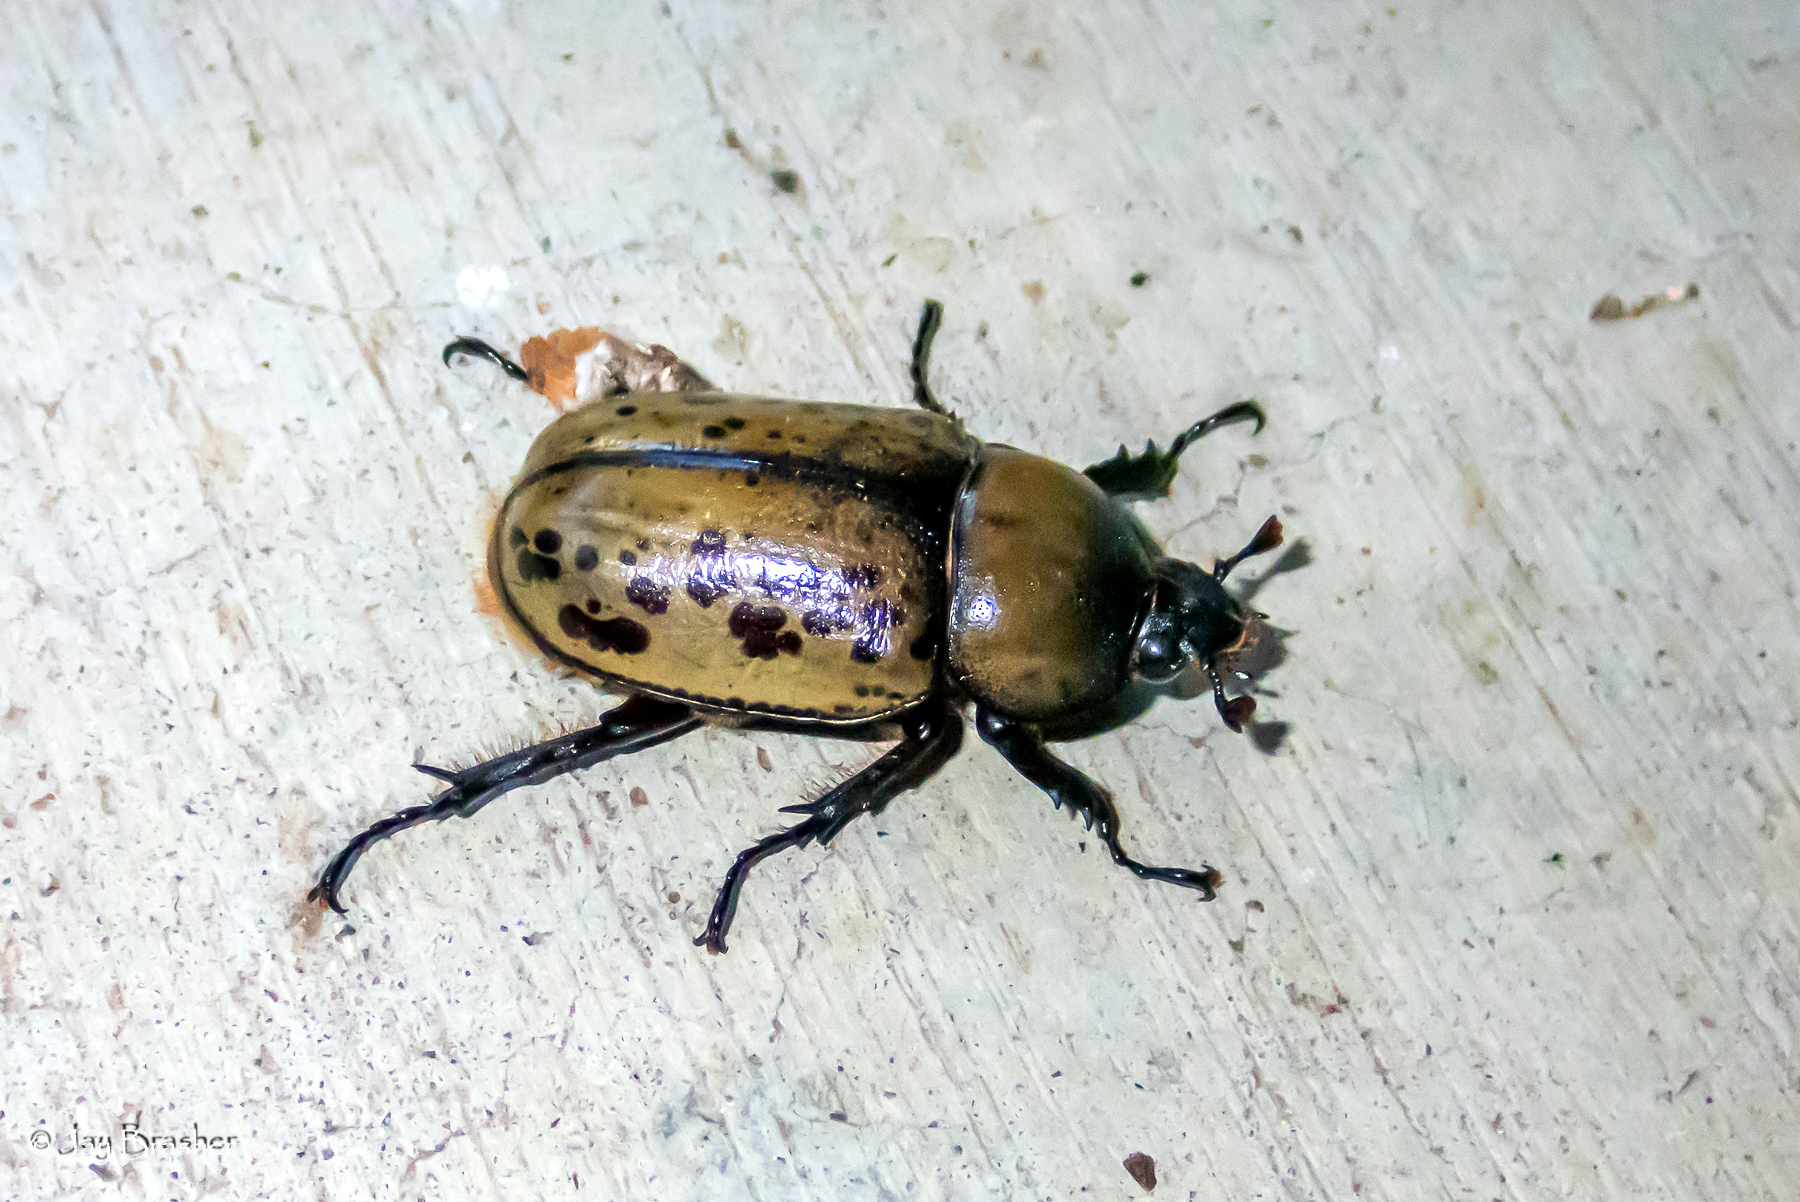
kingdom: Animalia
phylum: Arthropoda
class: Insecta
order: Coleoptera
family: Scarabaeidae
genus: Dynastes
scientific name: Dynastes tityus
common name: Eastern hercules beetle
